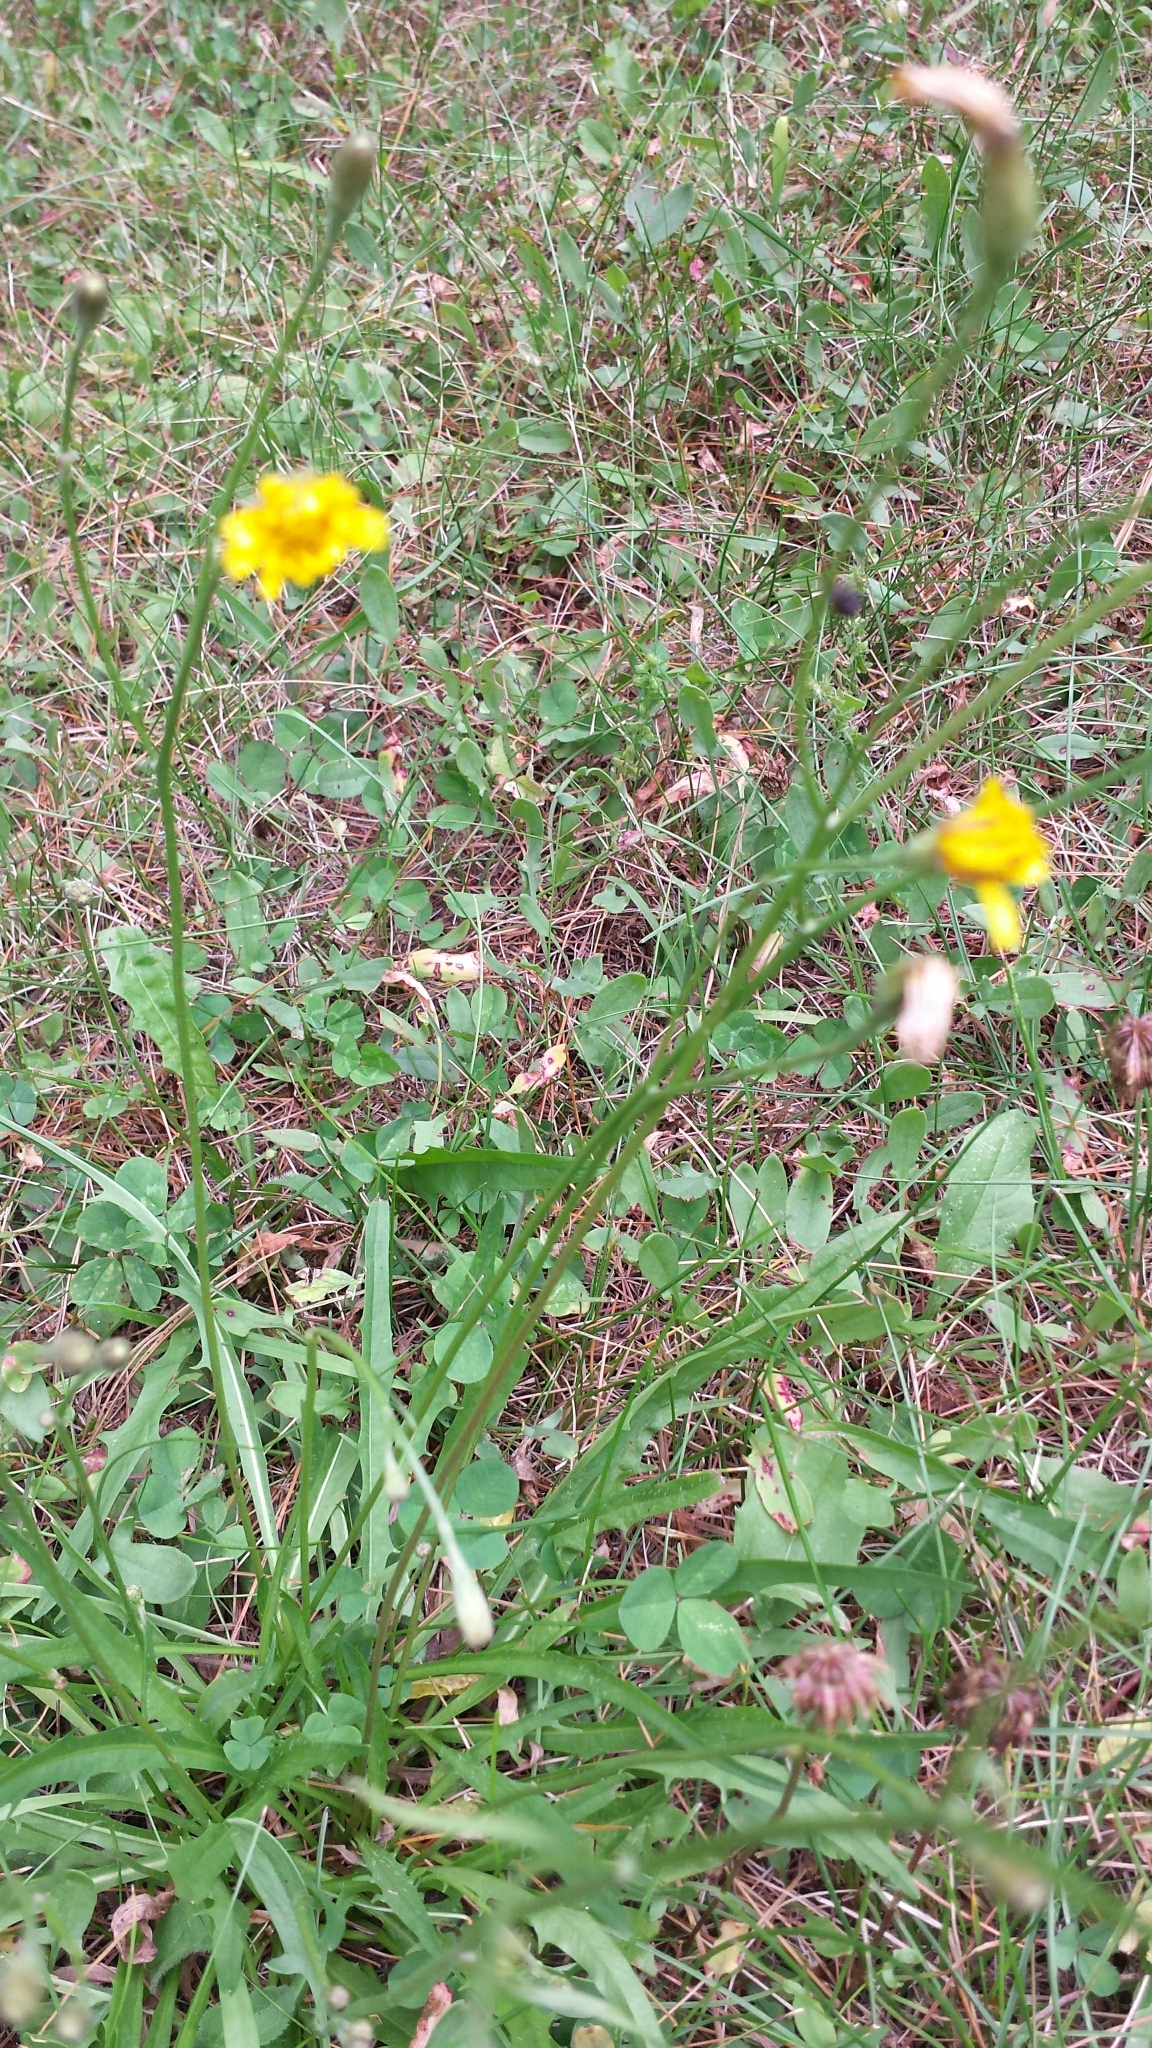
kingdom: Plantae
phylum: Tracheophyta
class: Magnoliopsida
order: Asterales
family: Asteraceae
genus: Scorzoneroides
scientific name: Scorzoneroides autumnalis
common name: Autumn hawkbit
